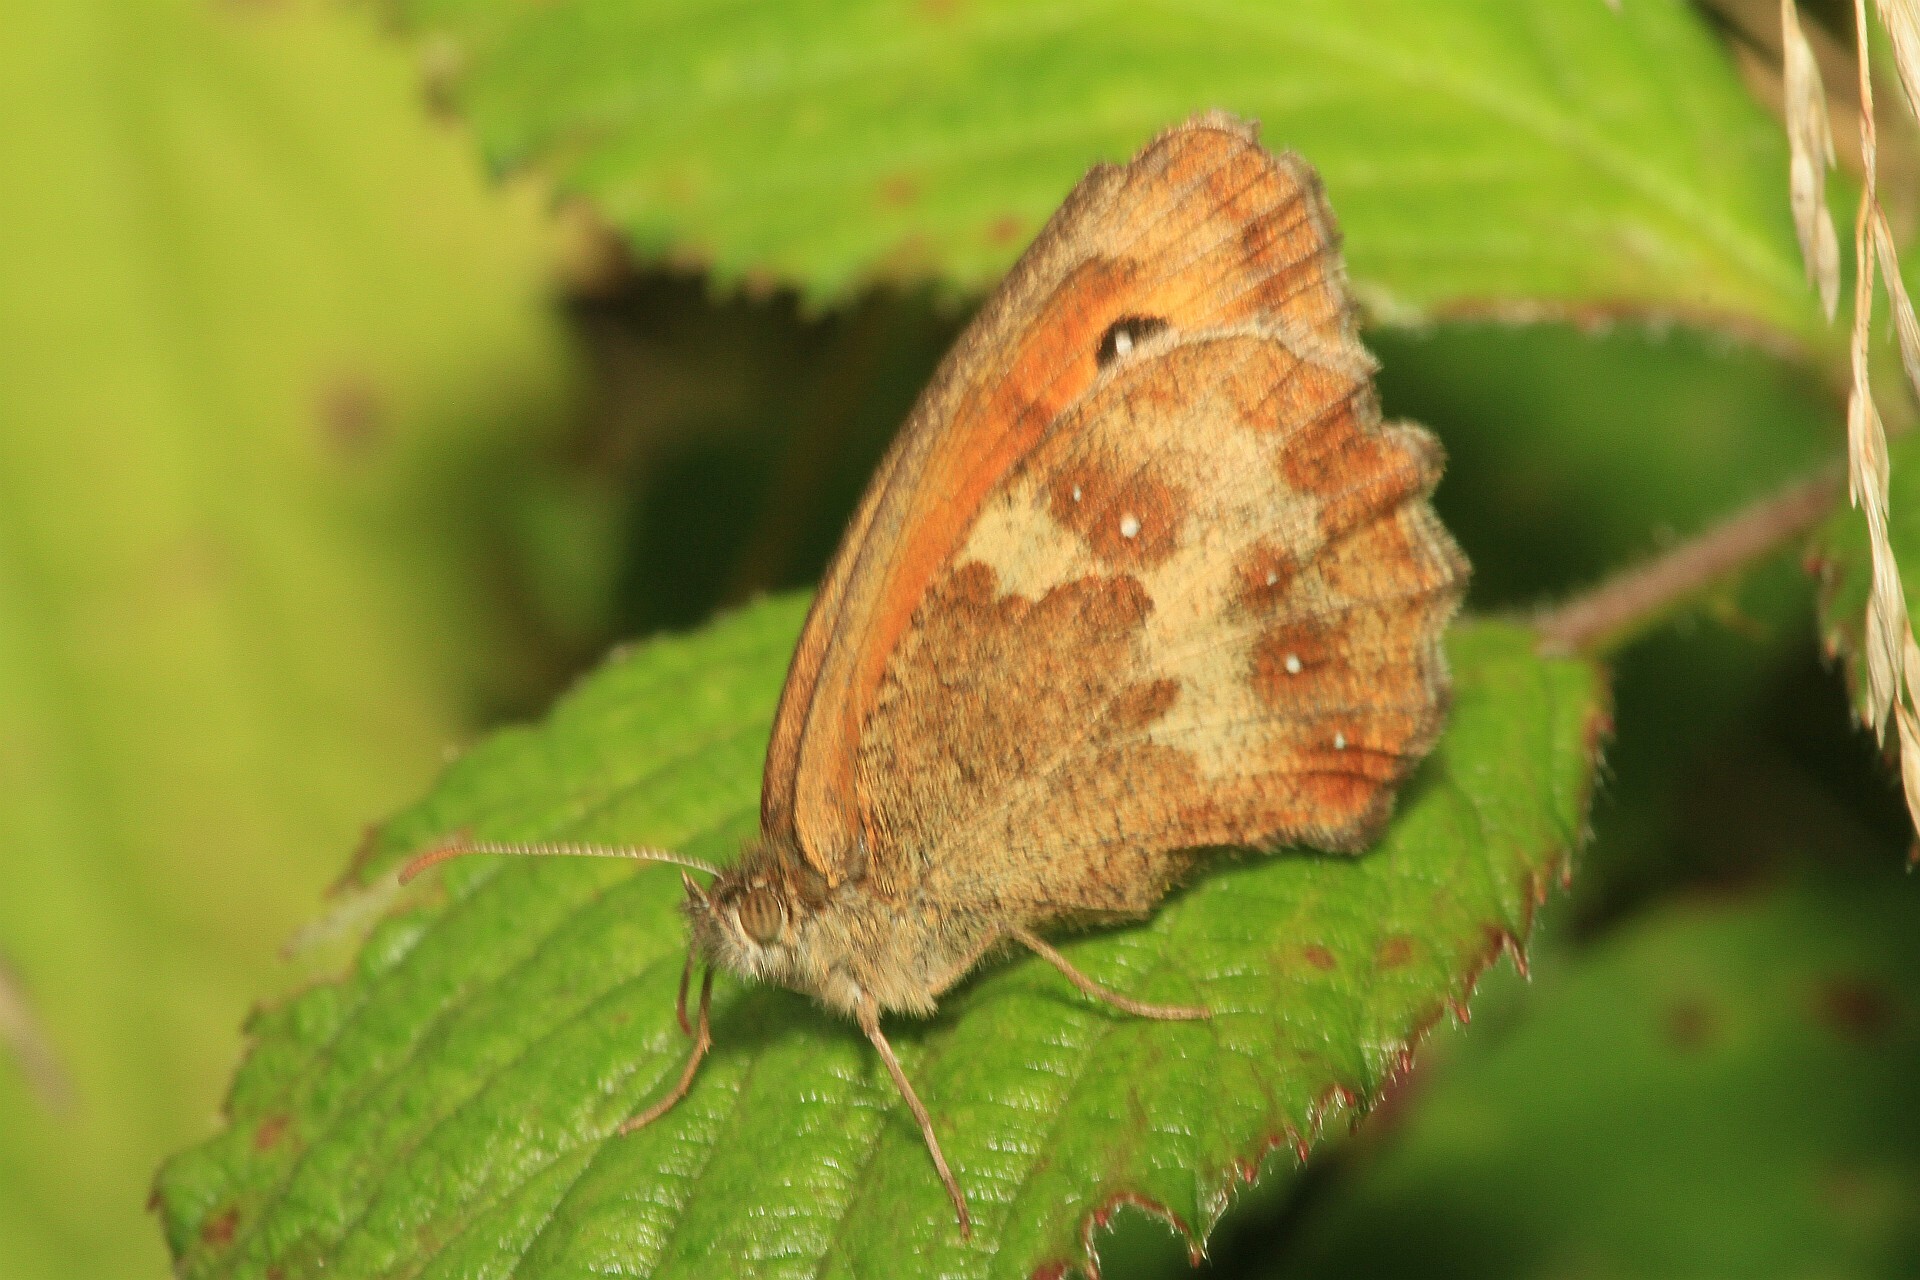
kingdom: Animalia
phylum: Arthropoda
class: Insecta
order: Lepidoptera
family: Nymphalidae
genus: Pyronia
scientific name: Pyronia tithonus
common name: Gatekeeper
